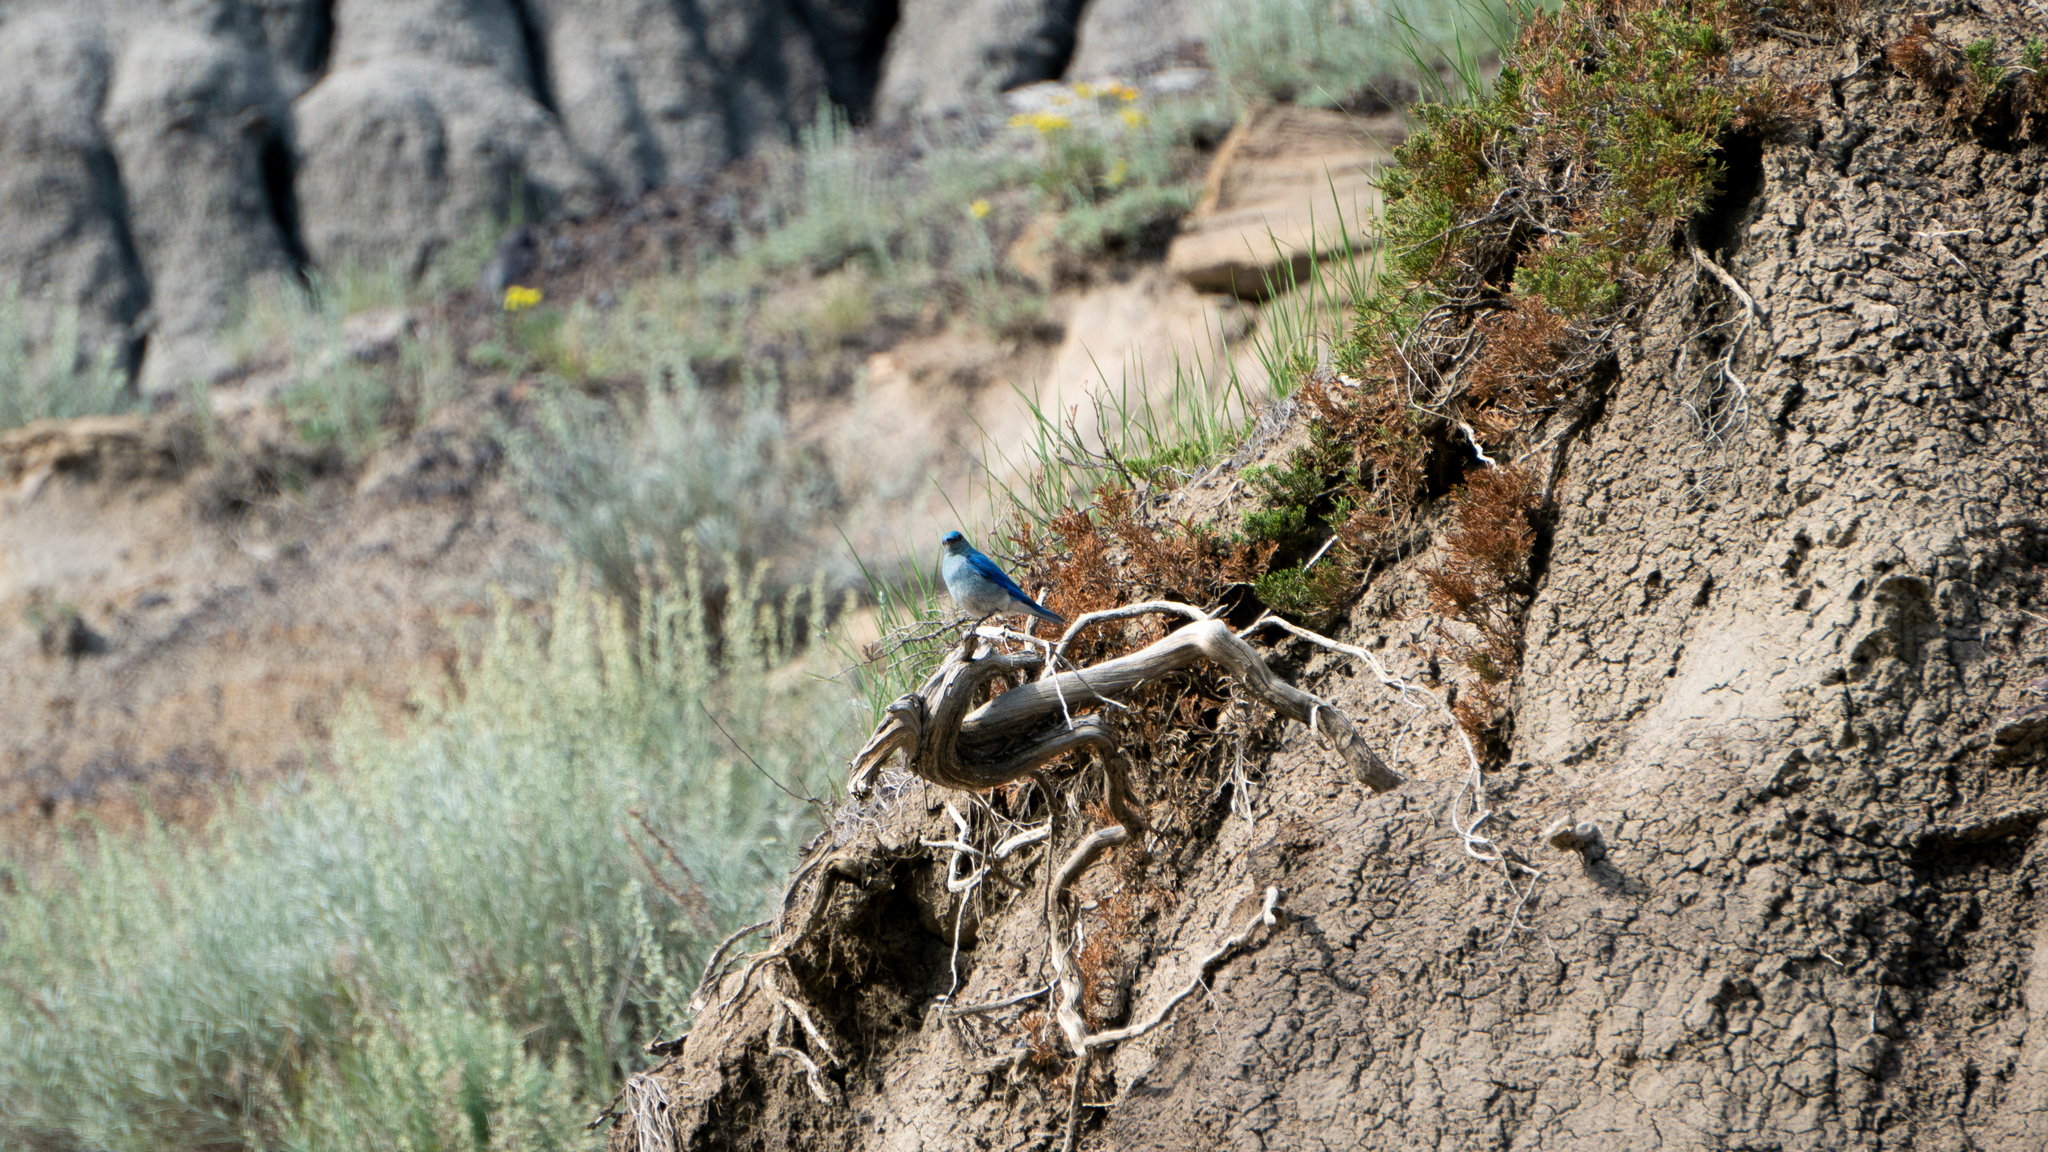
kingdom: Animalia
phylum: Chordata
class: Aves
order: Passeriformes
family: Turdidae
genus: Sialia
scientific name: Sialia currucoides
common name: Mountain bluebird
